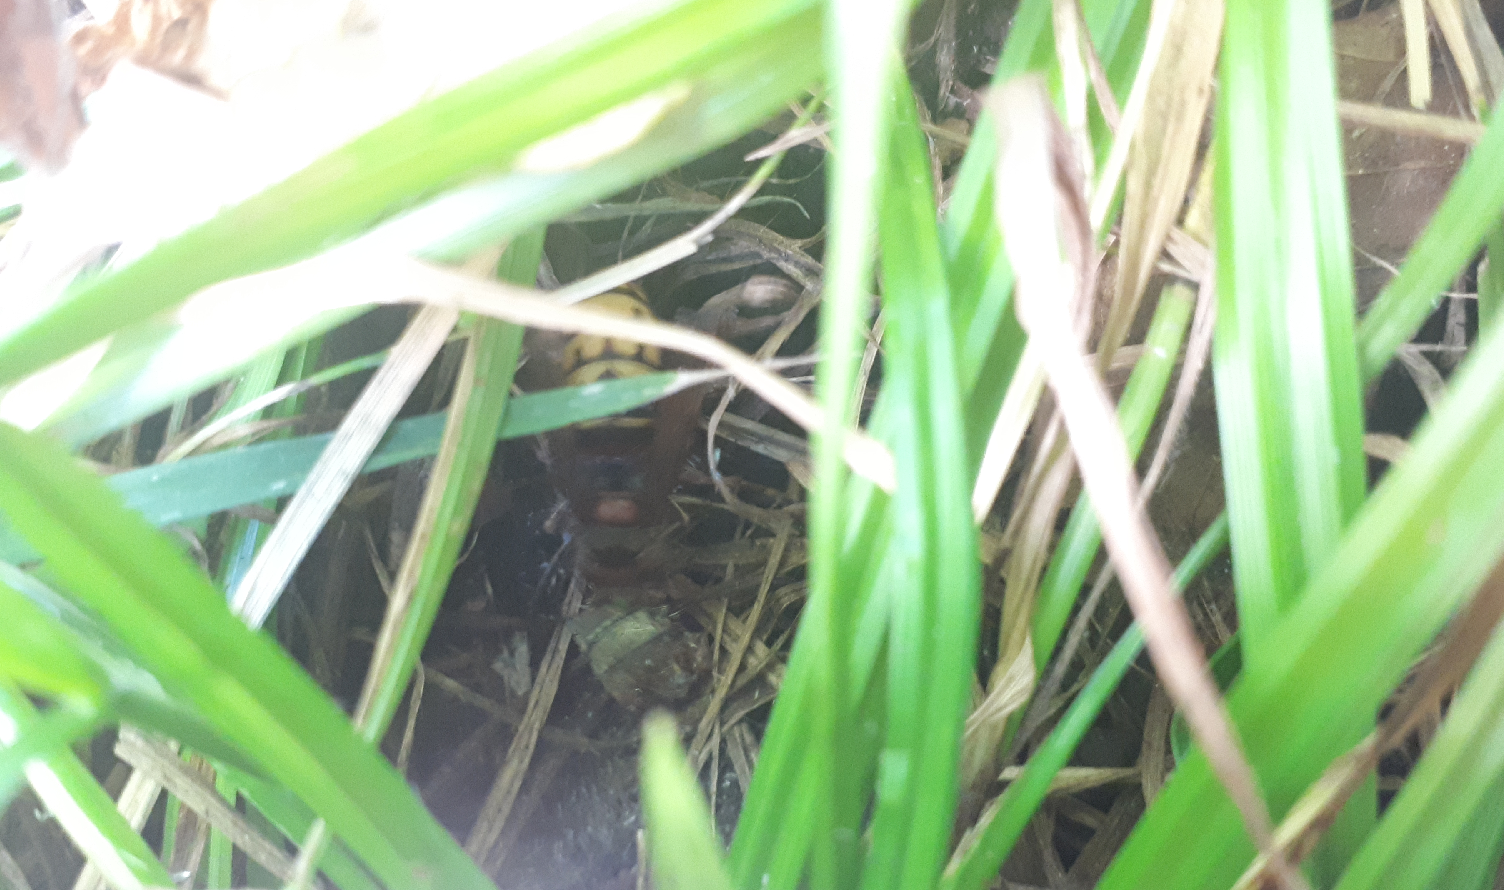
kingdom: Animalia
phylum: Arthropoda
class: Insecta
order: Hymenoptera
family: Vespidae
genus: Vespa
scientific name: Vespa crabro
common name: Hornet
